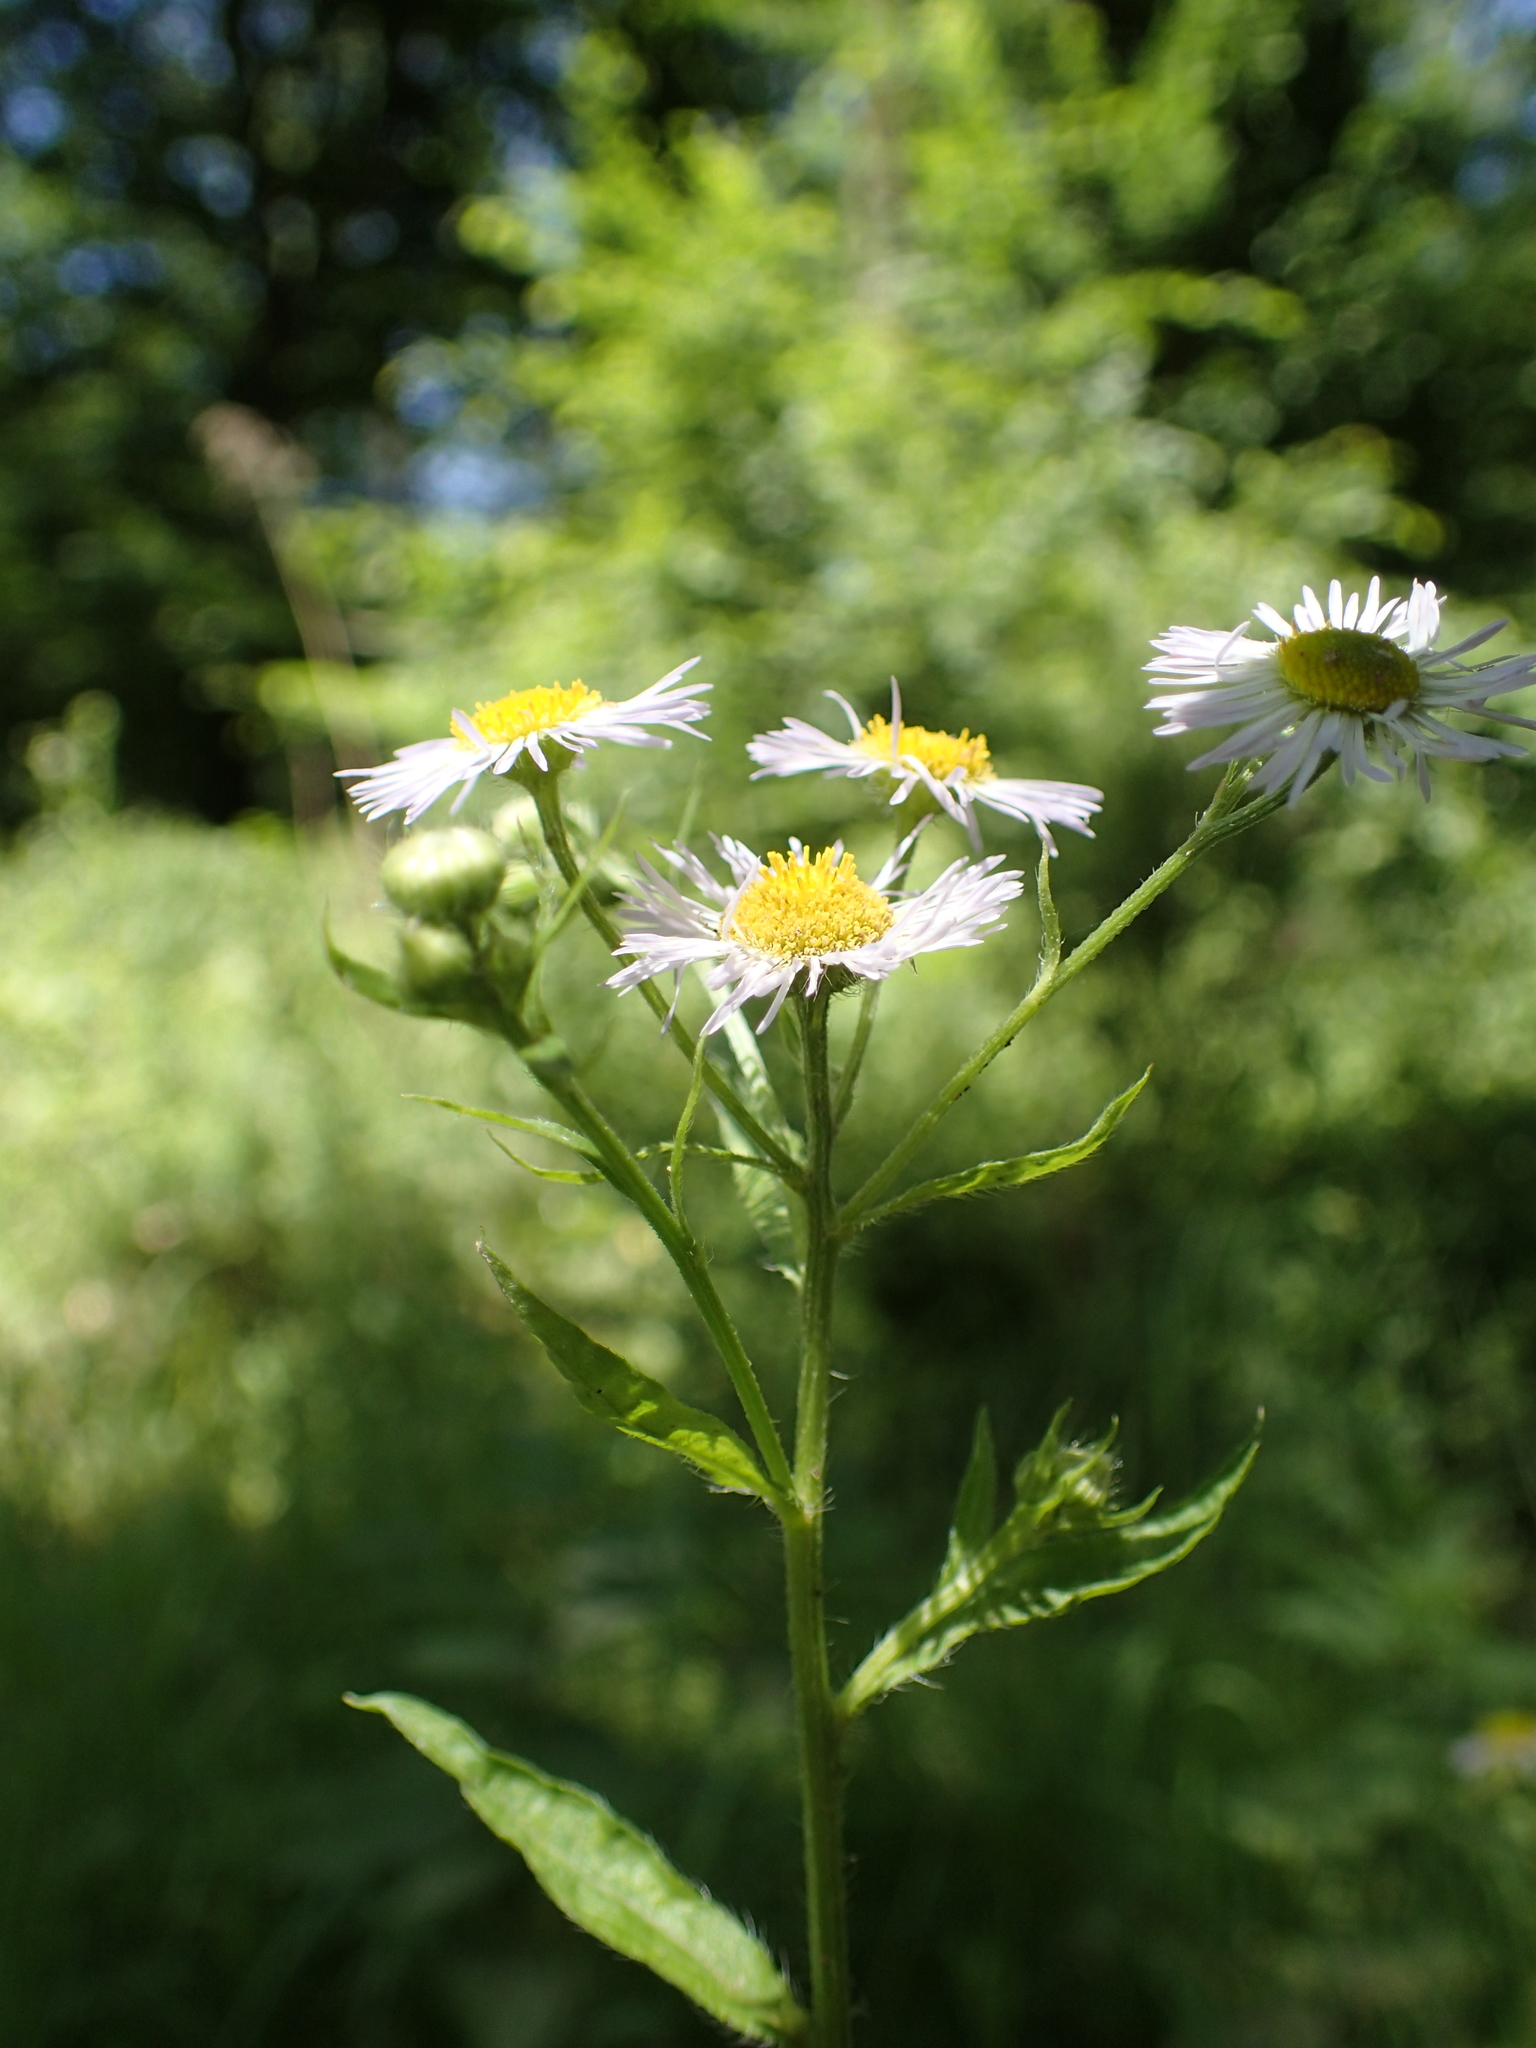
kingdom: Plantae
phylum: Tracheophyta
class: Magnoliopsida
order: Asterales
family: Asteraceae
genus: Erigeron
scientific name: Erigeron annuus
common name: Tall fleabane
